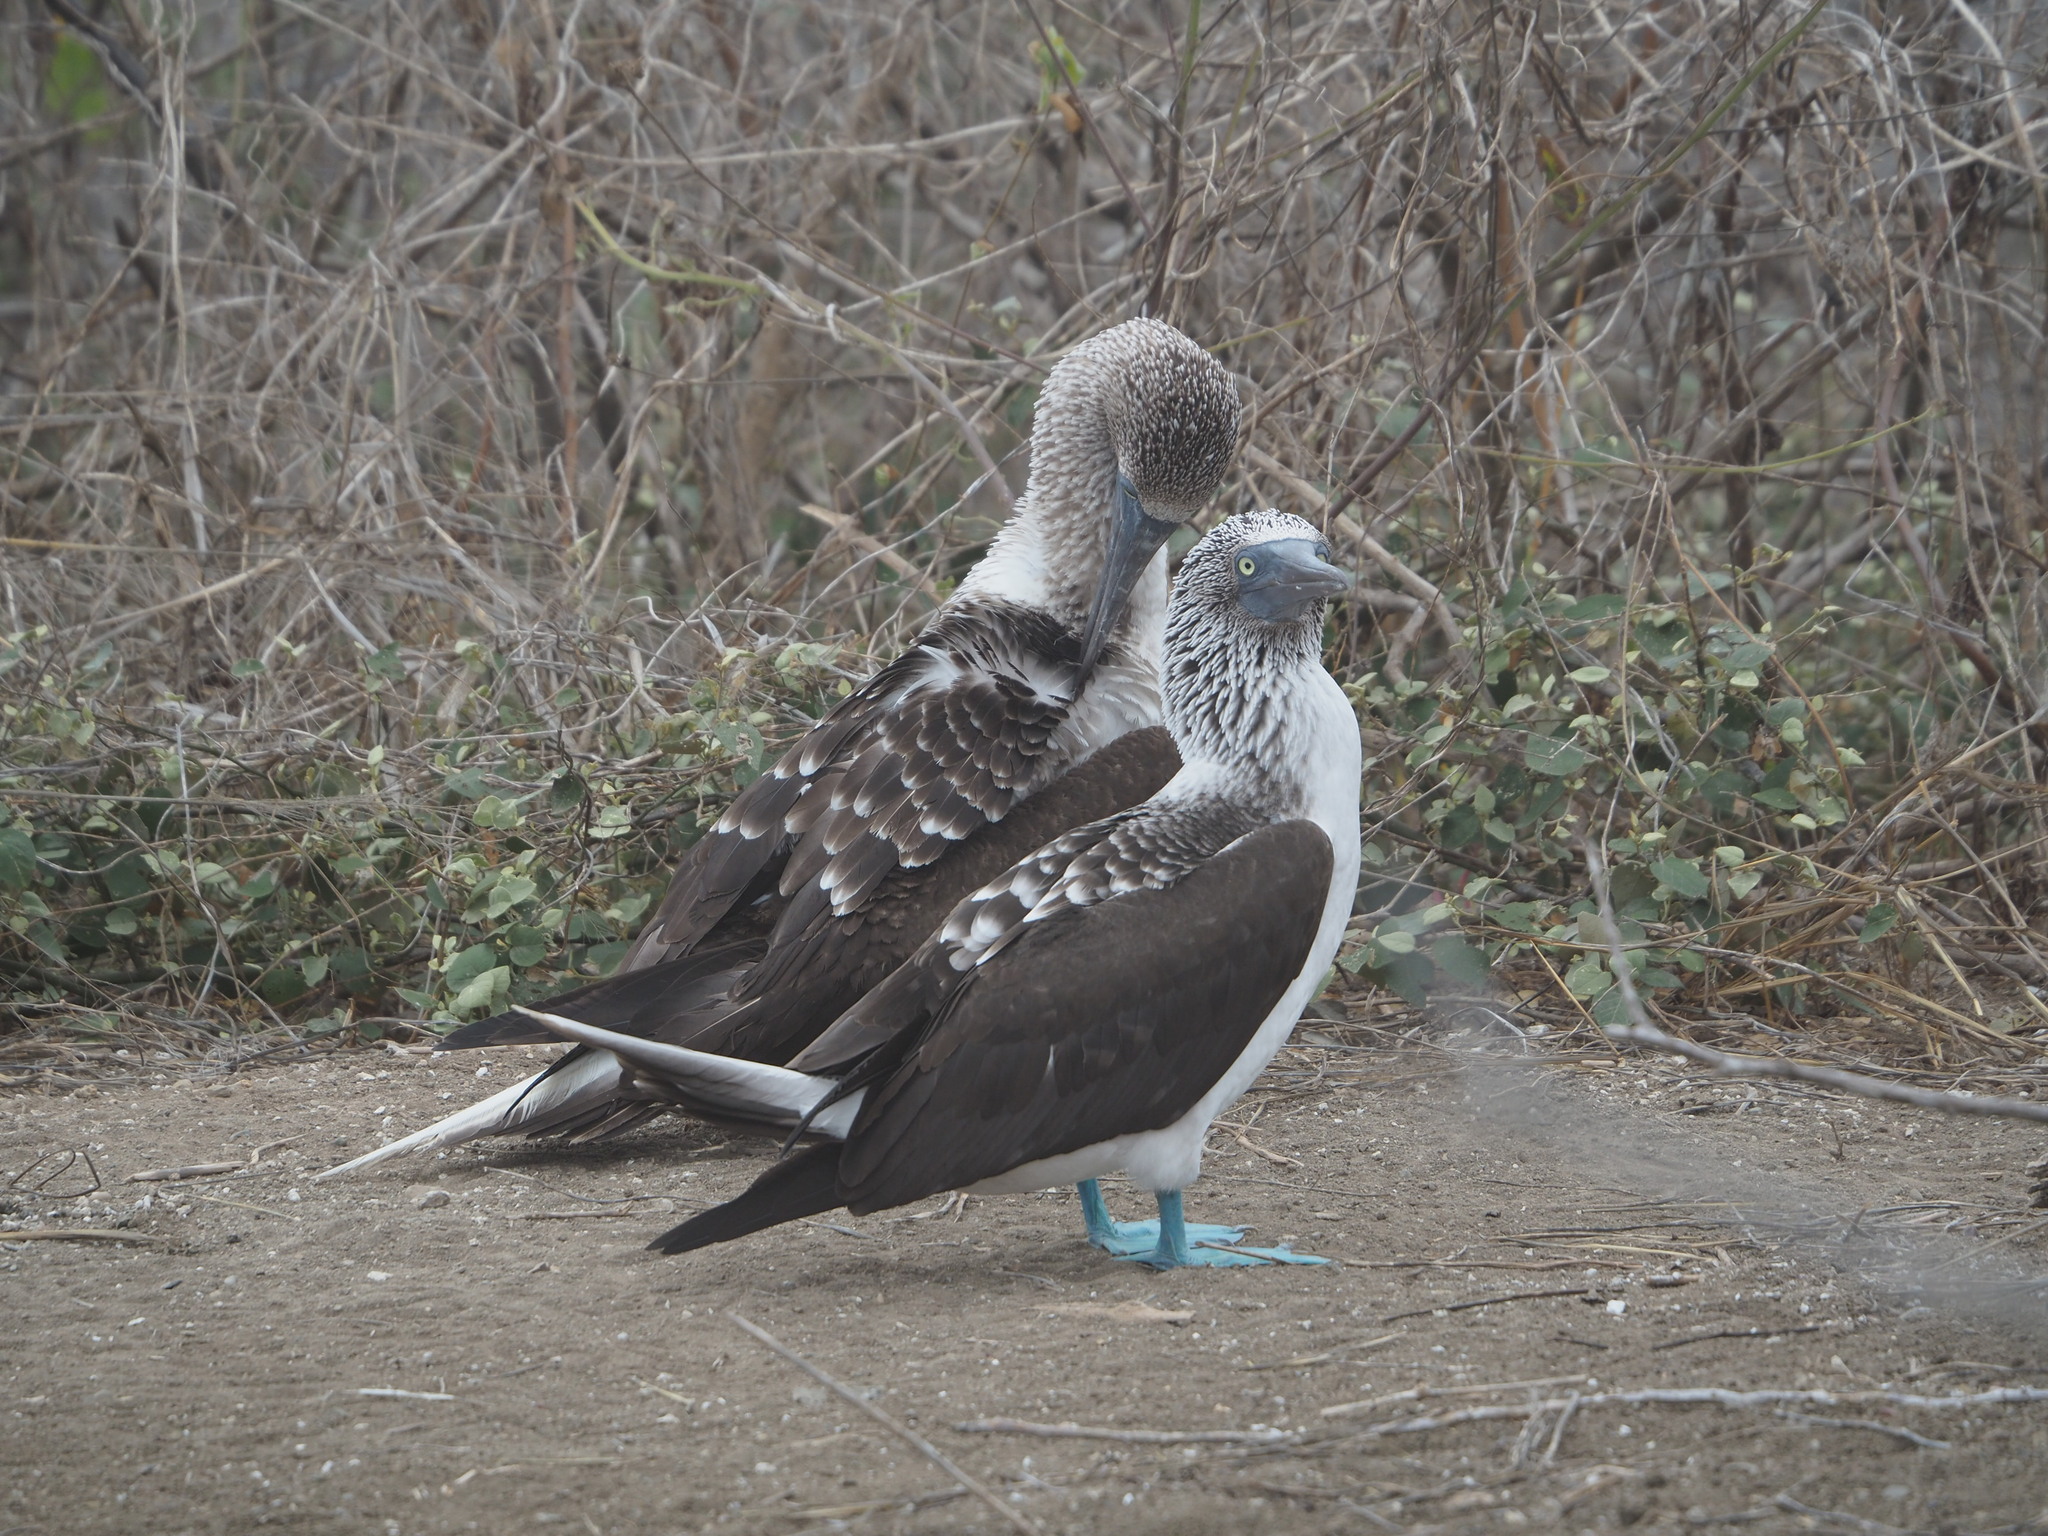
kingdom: Animalia
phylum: Chordata
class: Aves
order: Suliformes
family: Sulidae
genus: Sula
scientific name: Sula nebouxii
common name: Blue-footed booby
